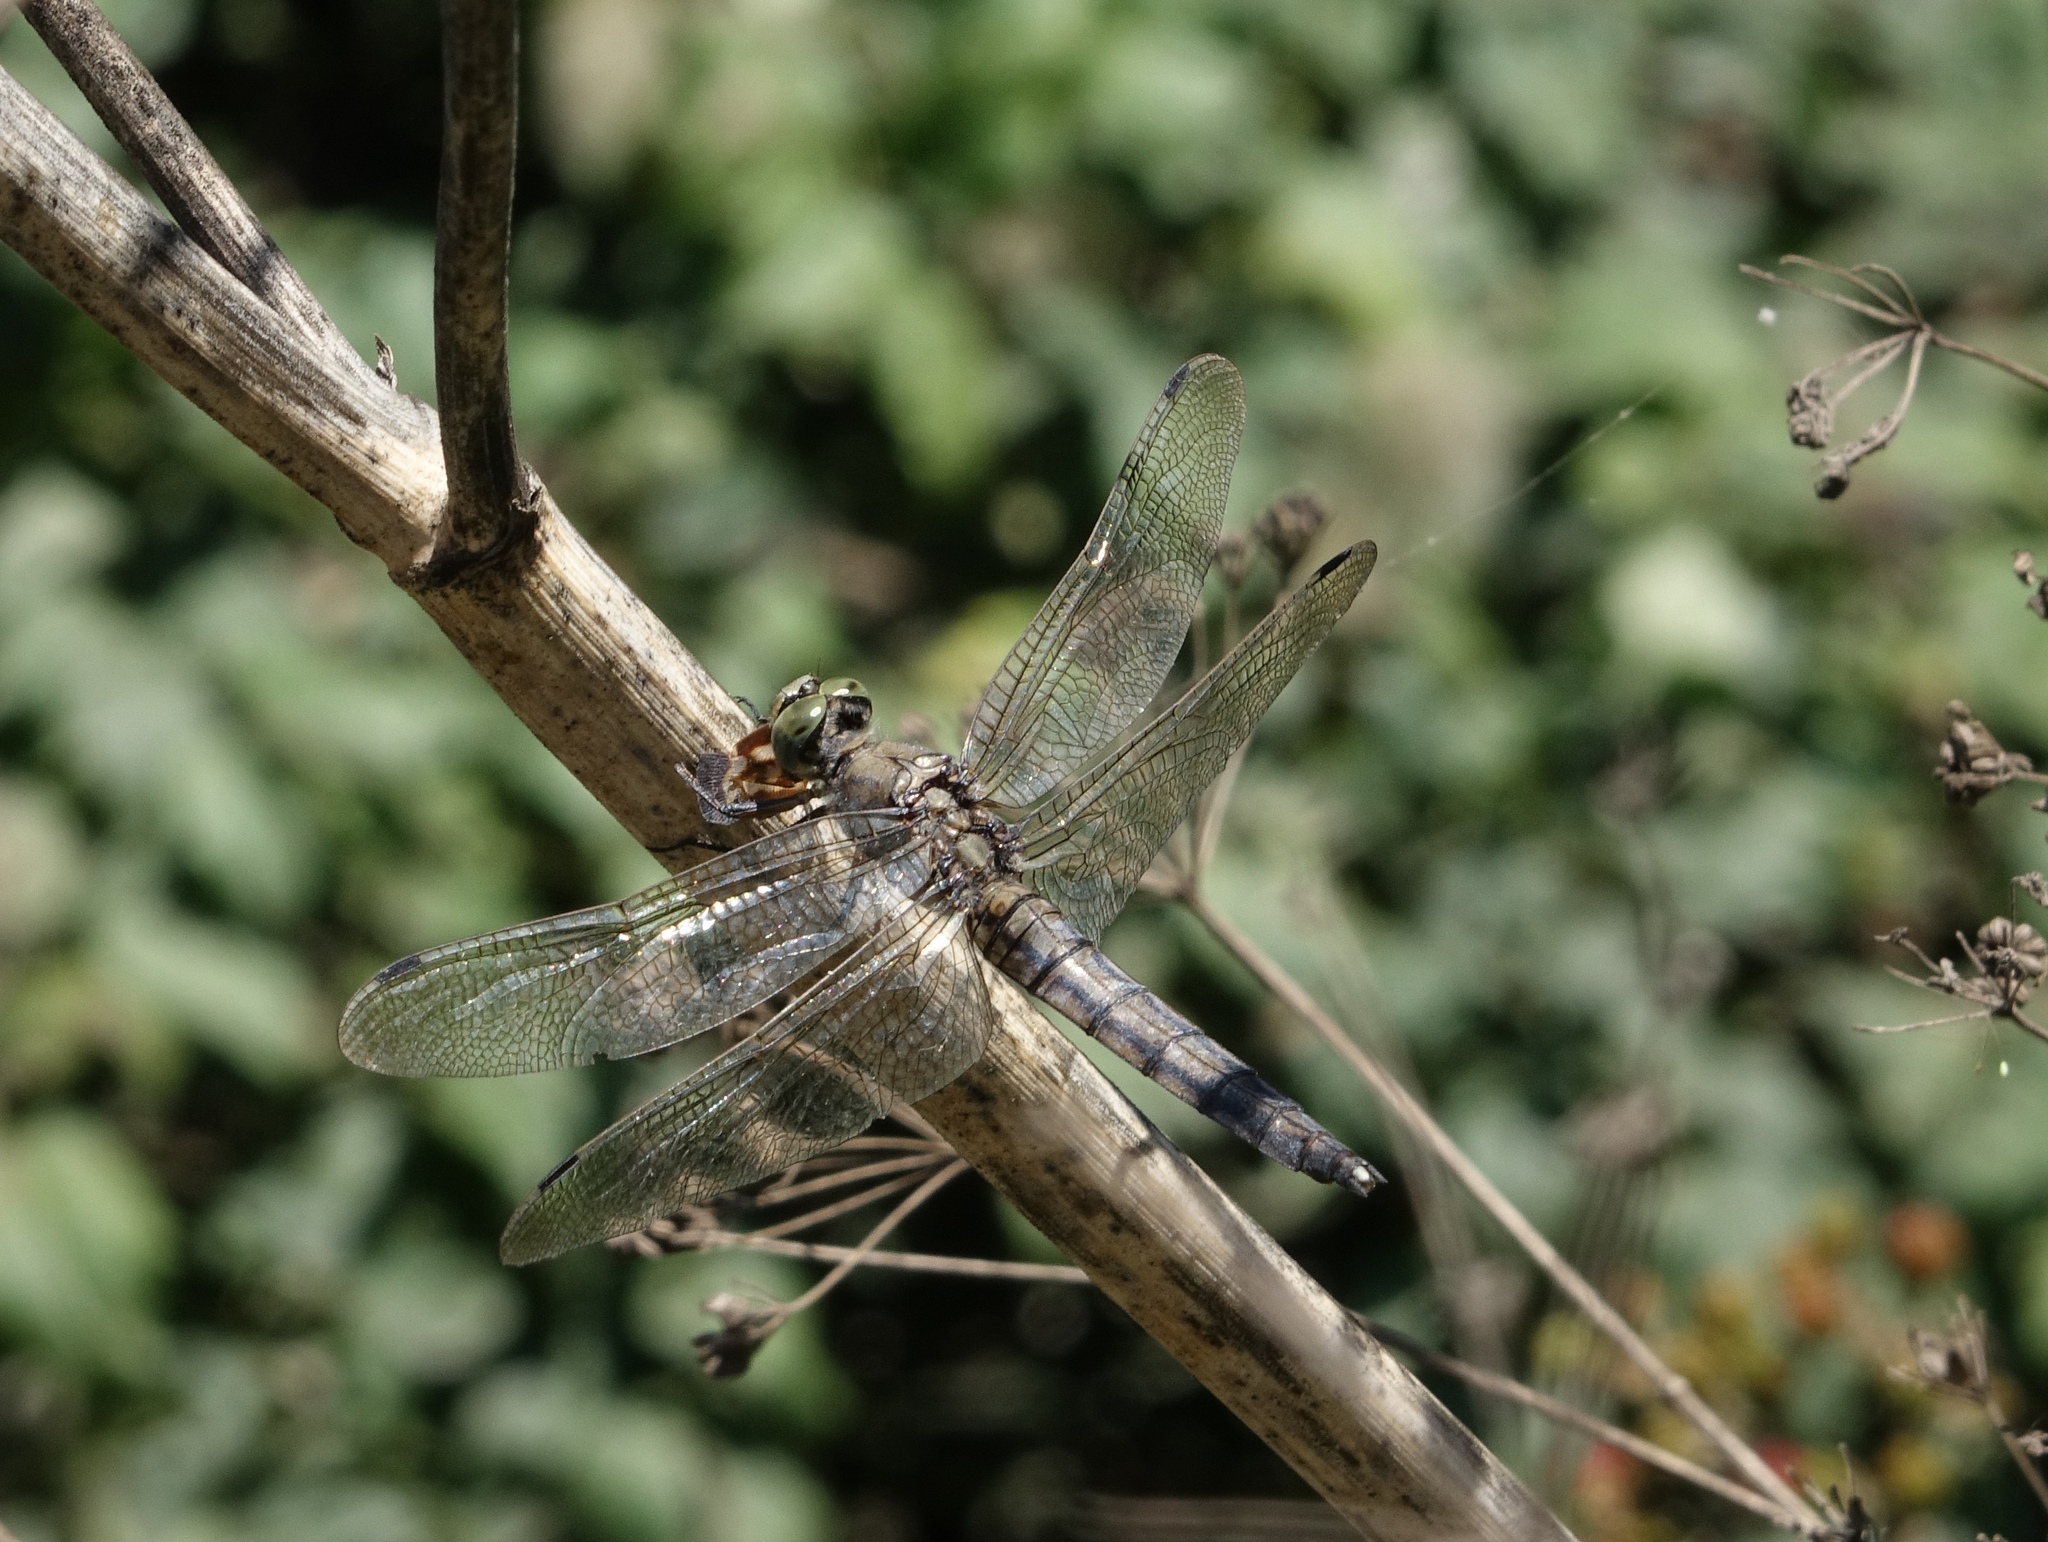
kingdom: Animalia
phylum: Arthropoda
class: Insecta
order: Odonata
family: Libellulidae
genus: Orthetrum
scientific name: Orthetrum cancellatum
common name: Black-tailed skimmer
